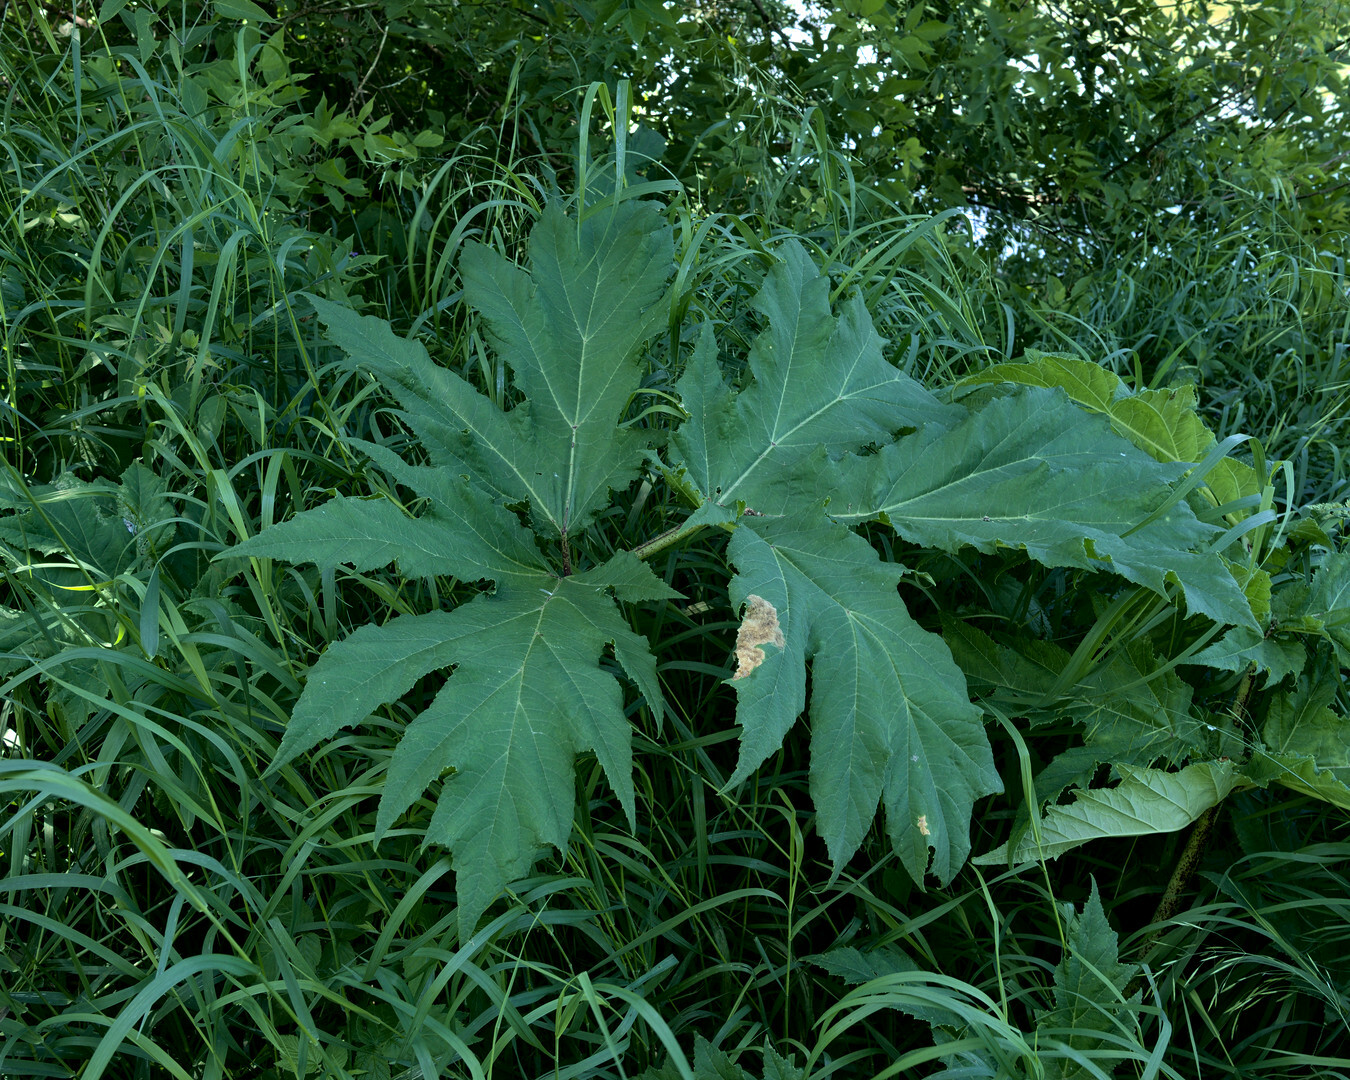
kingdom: Plantae
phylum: Tracheophyta
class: Magnoliopsida
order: Apiales
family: Apiaceae
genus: Heracleum
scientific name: Heracleum mantegazzianum
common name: Giant hogweed
